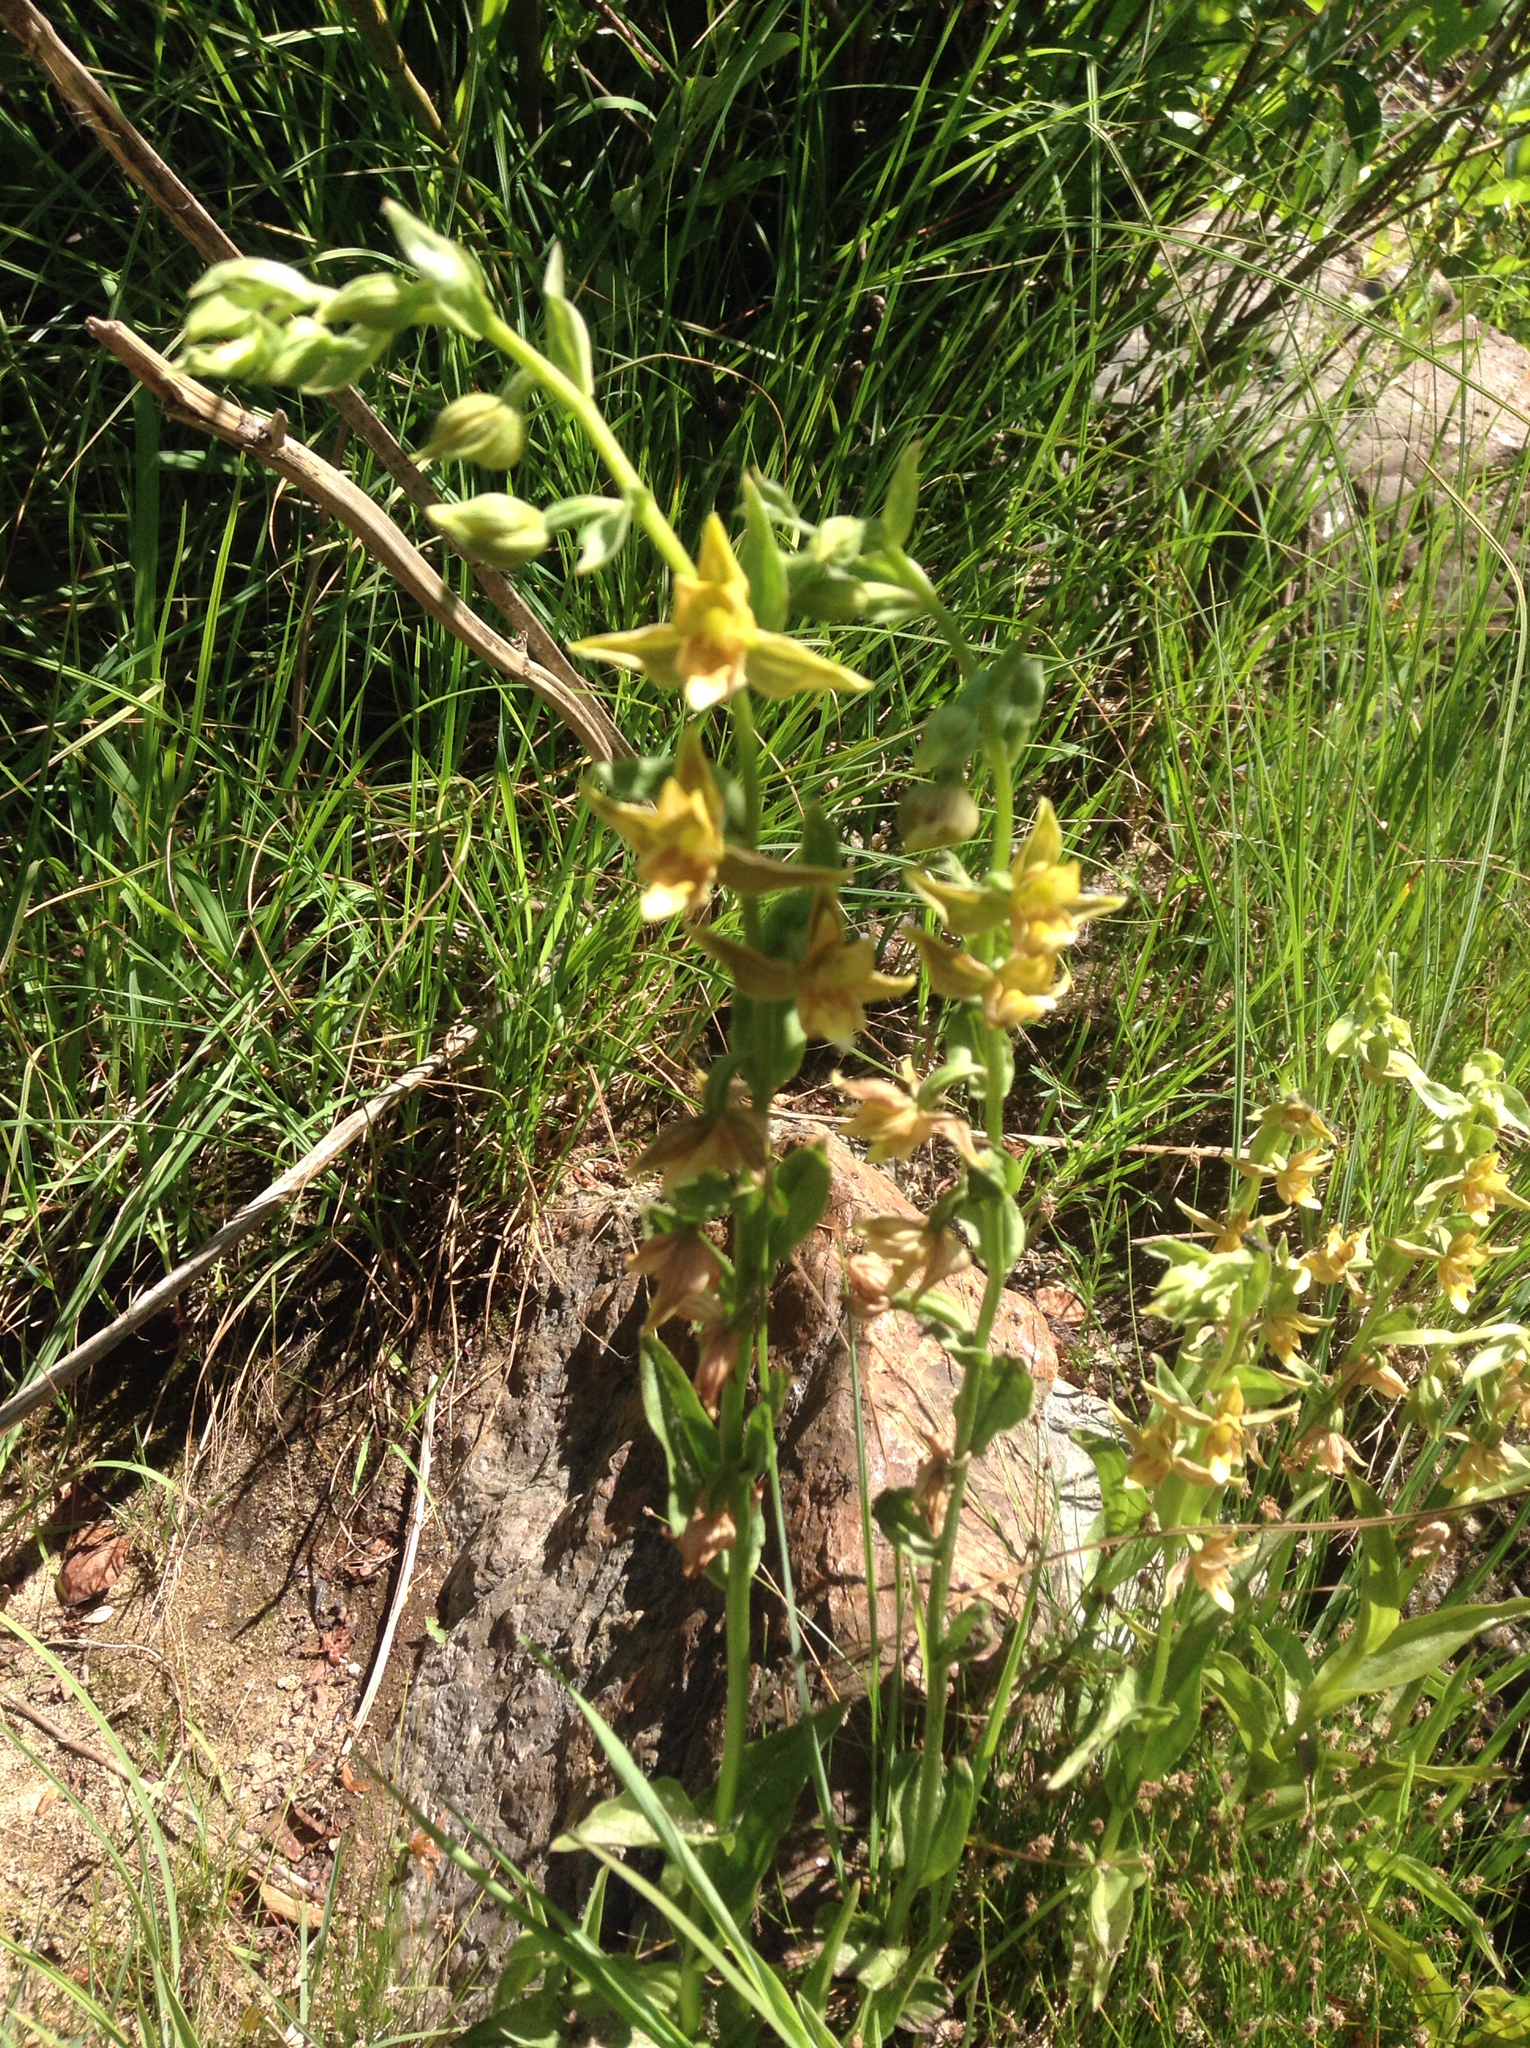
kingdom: Plantae
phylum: Tracheophyta
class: Liliopsida
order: Asparagales
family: Orchidaceae
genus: Epipactis
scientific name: Epipactis gigantea
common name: Chatterbox
